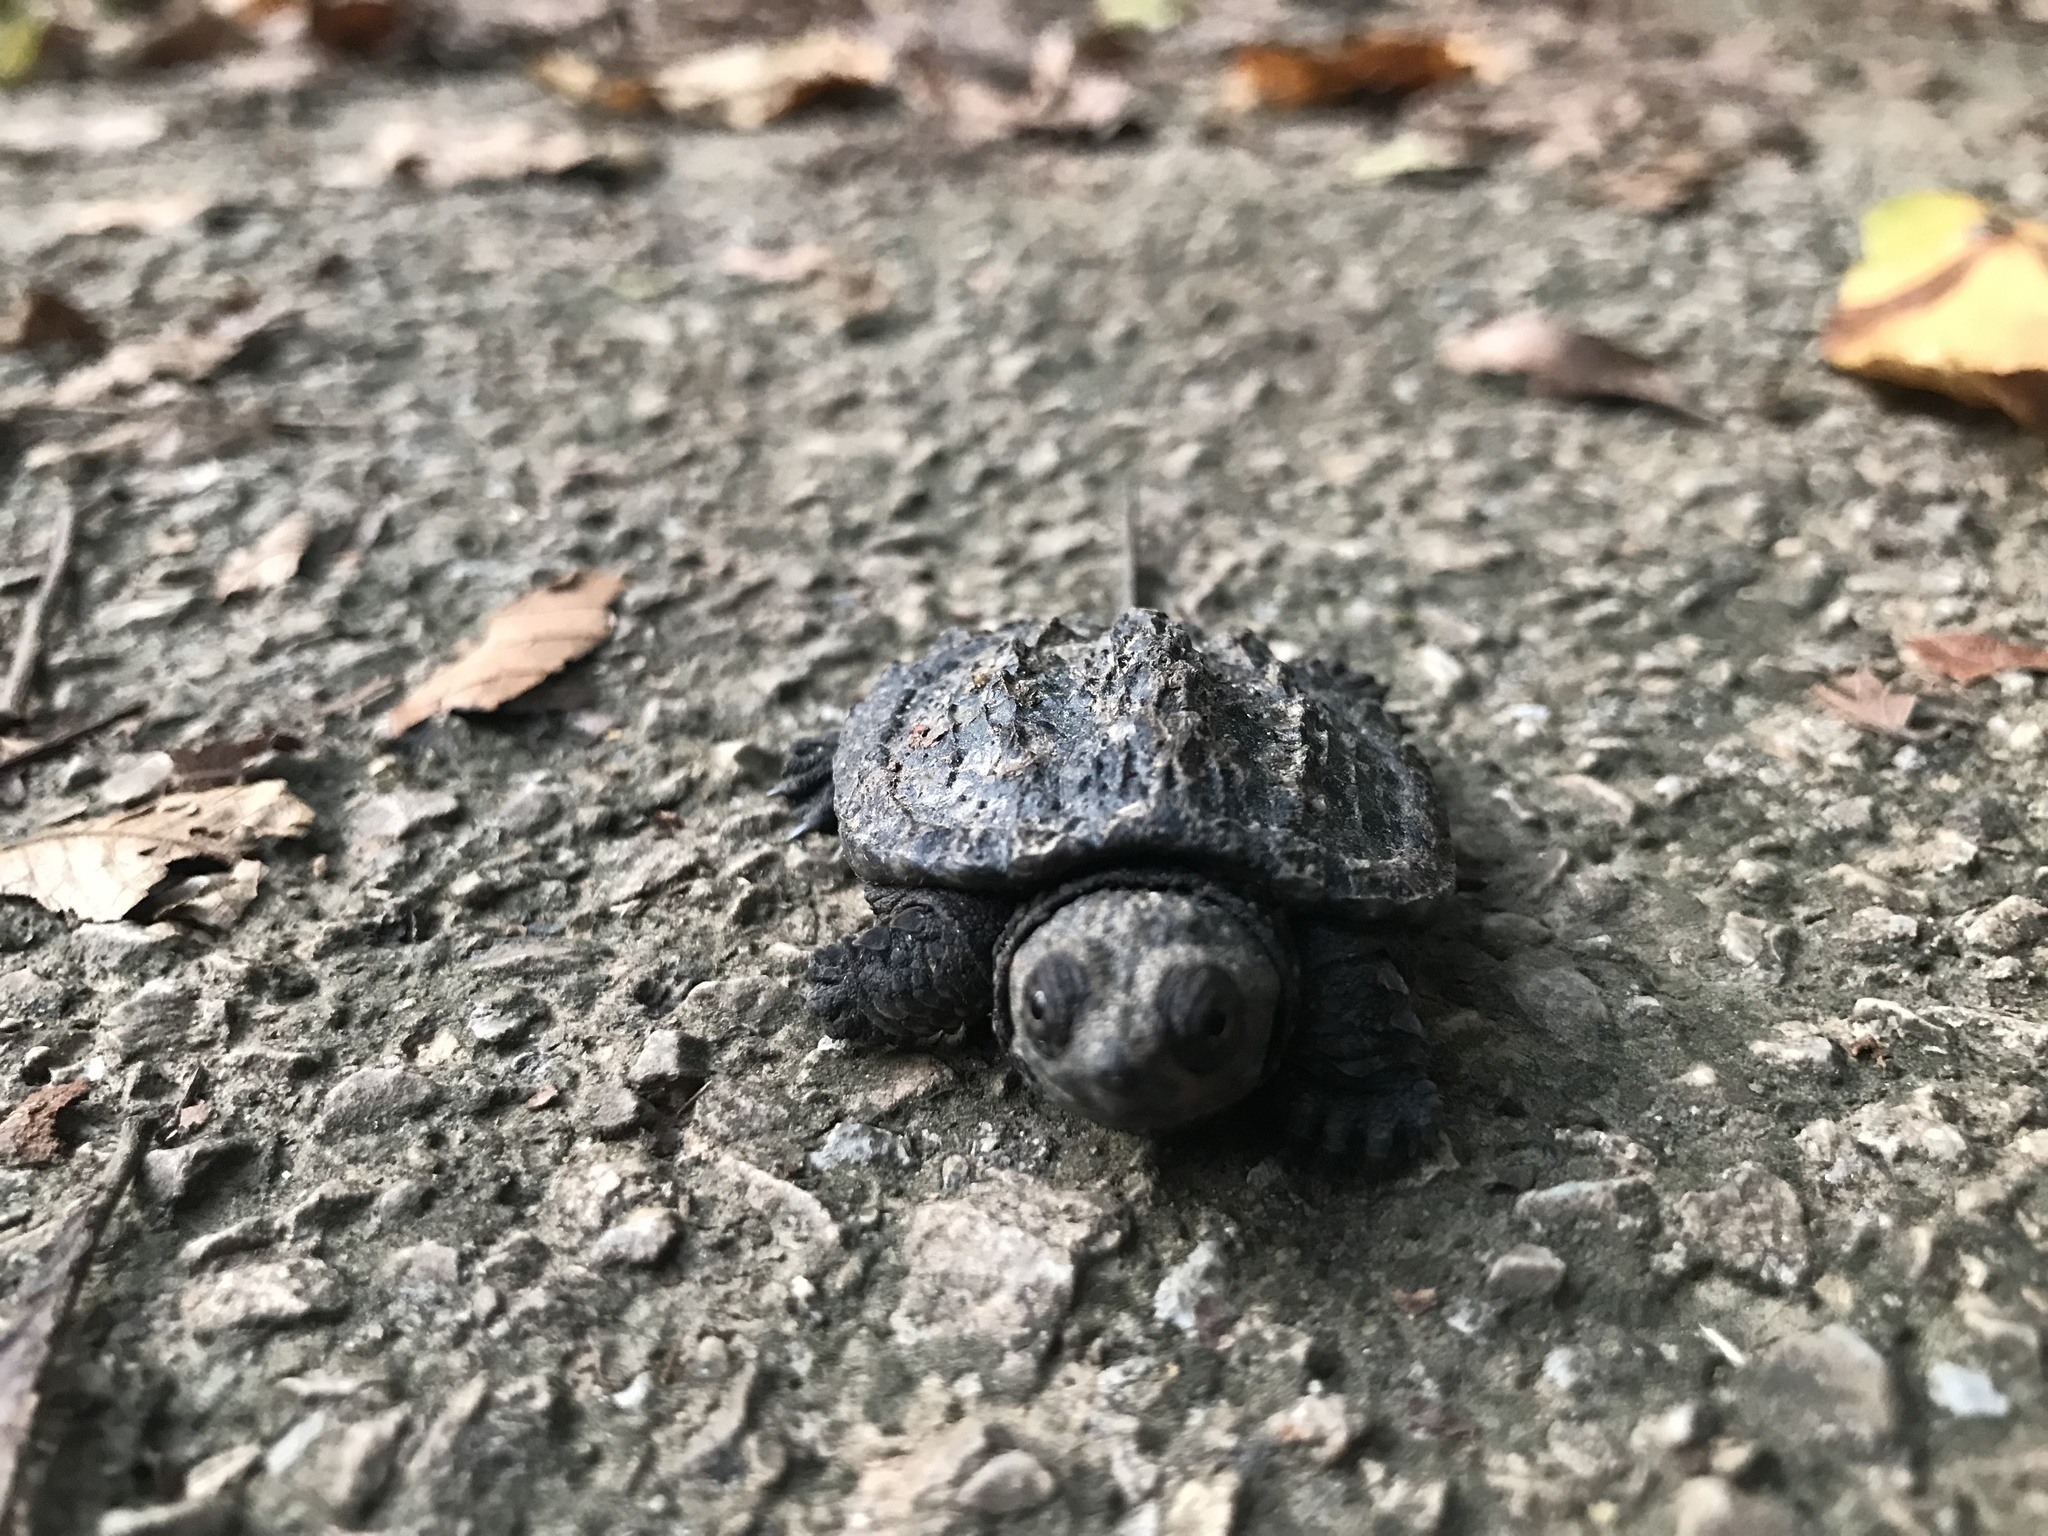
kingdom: Animalia
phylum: Chordata
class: Testudines
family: Chelydridae
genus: Chelydra
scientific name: Chelydra serpentina
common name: Common snapping turtle
